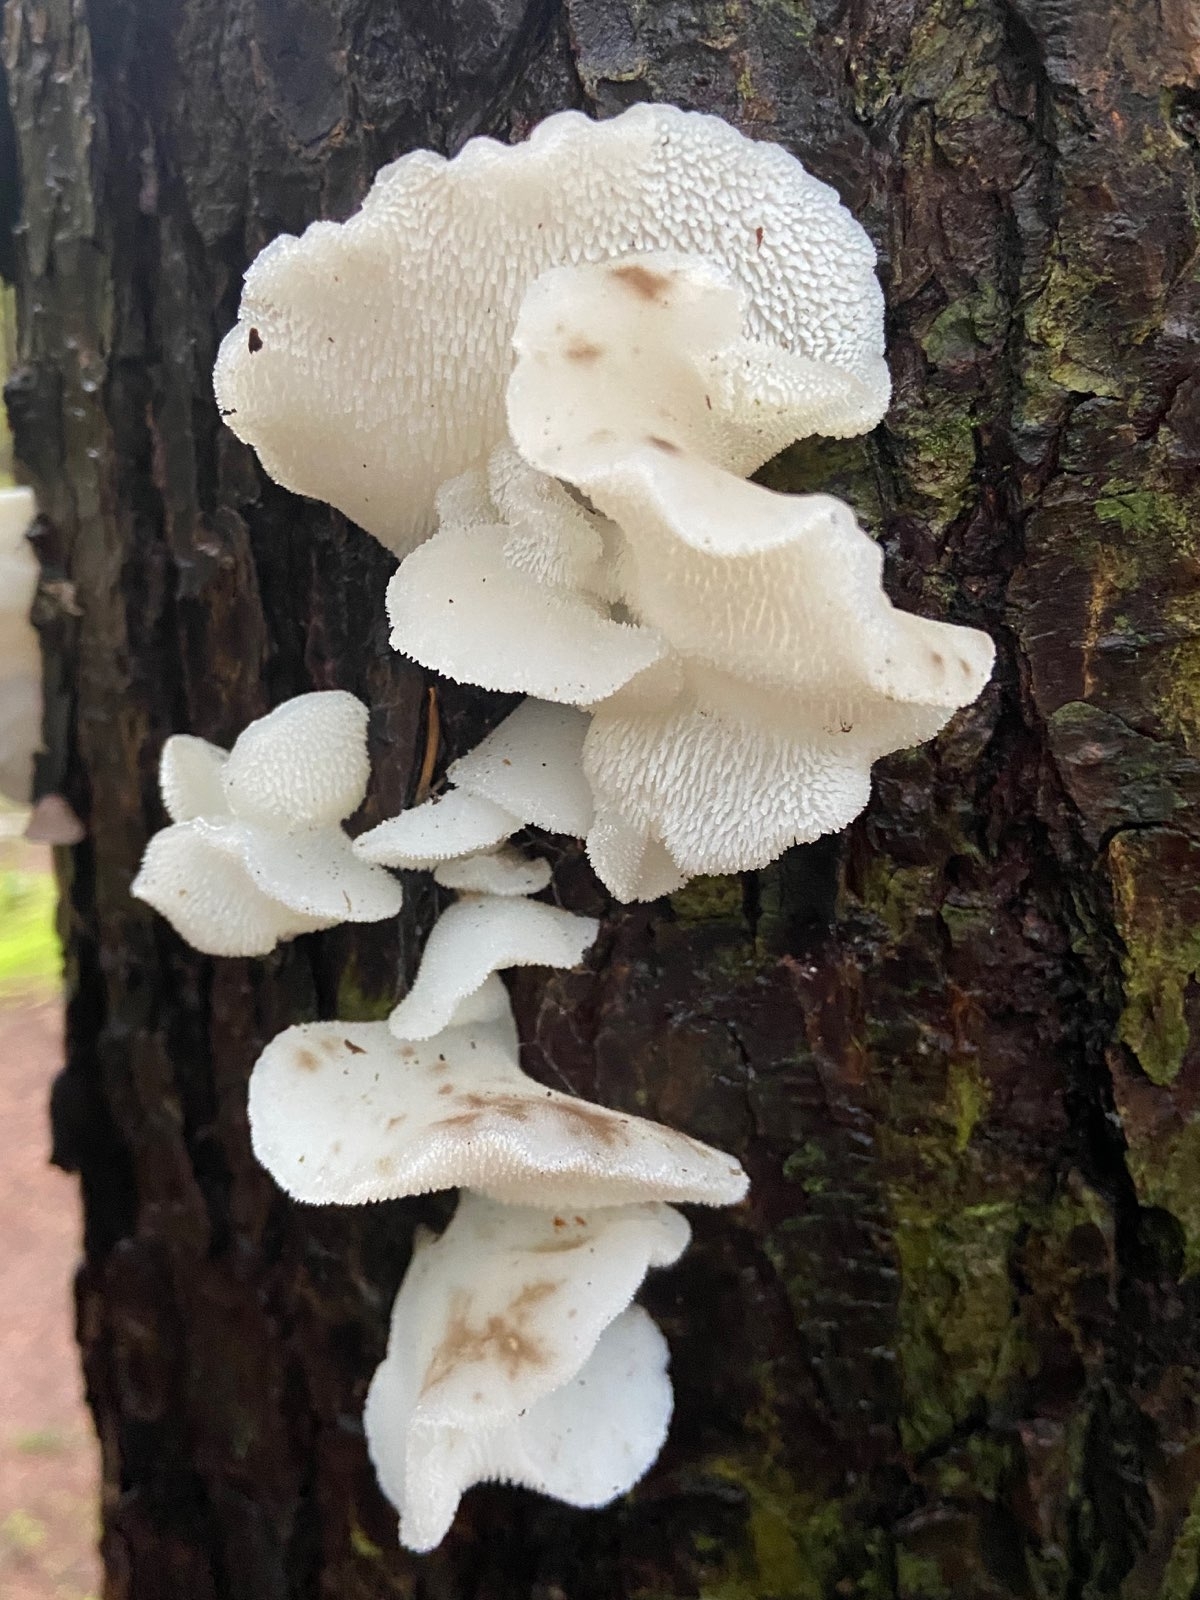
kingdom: Fungi
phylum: Basidiomycota
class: Agaricomycetes
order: Auriculariales
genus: Pseudohydnum
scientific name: Pseudohydnum gelatinosum
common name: Jelly tongue
